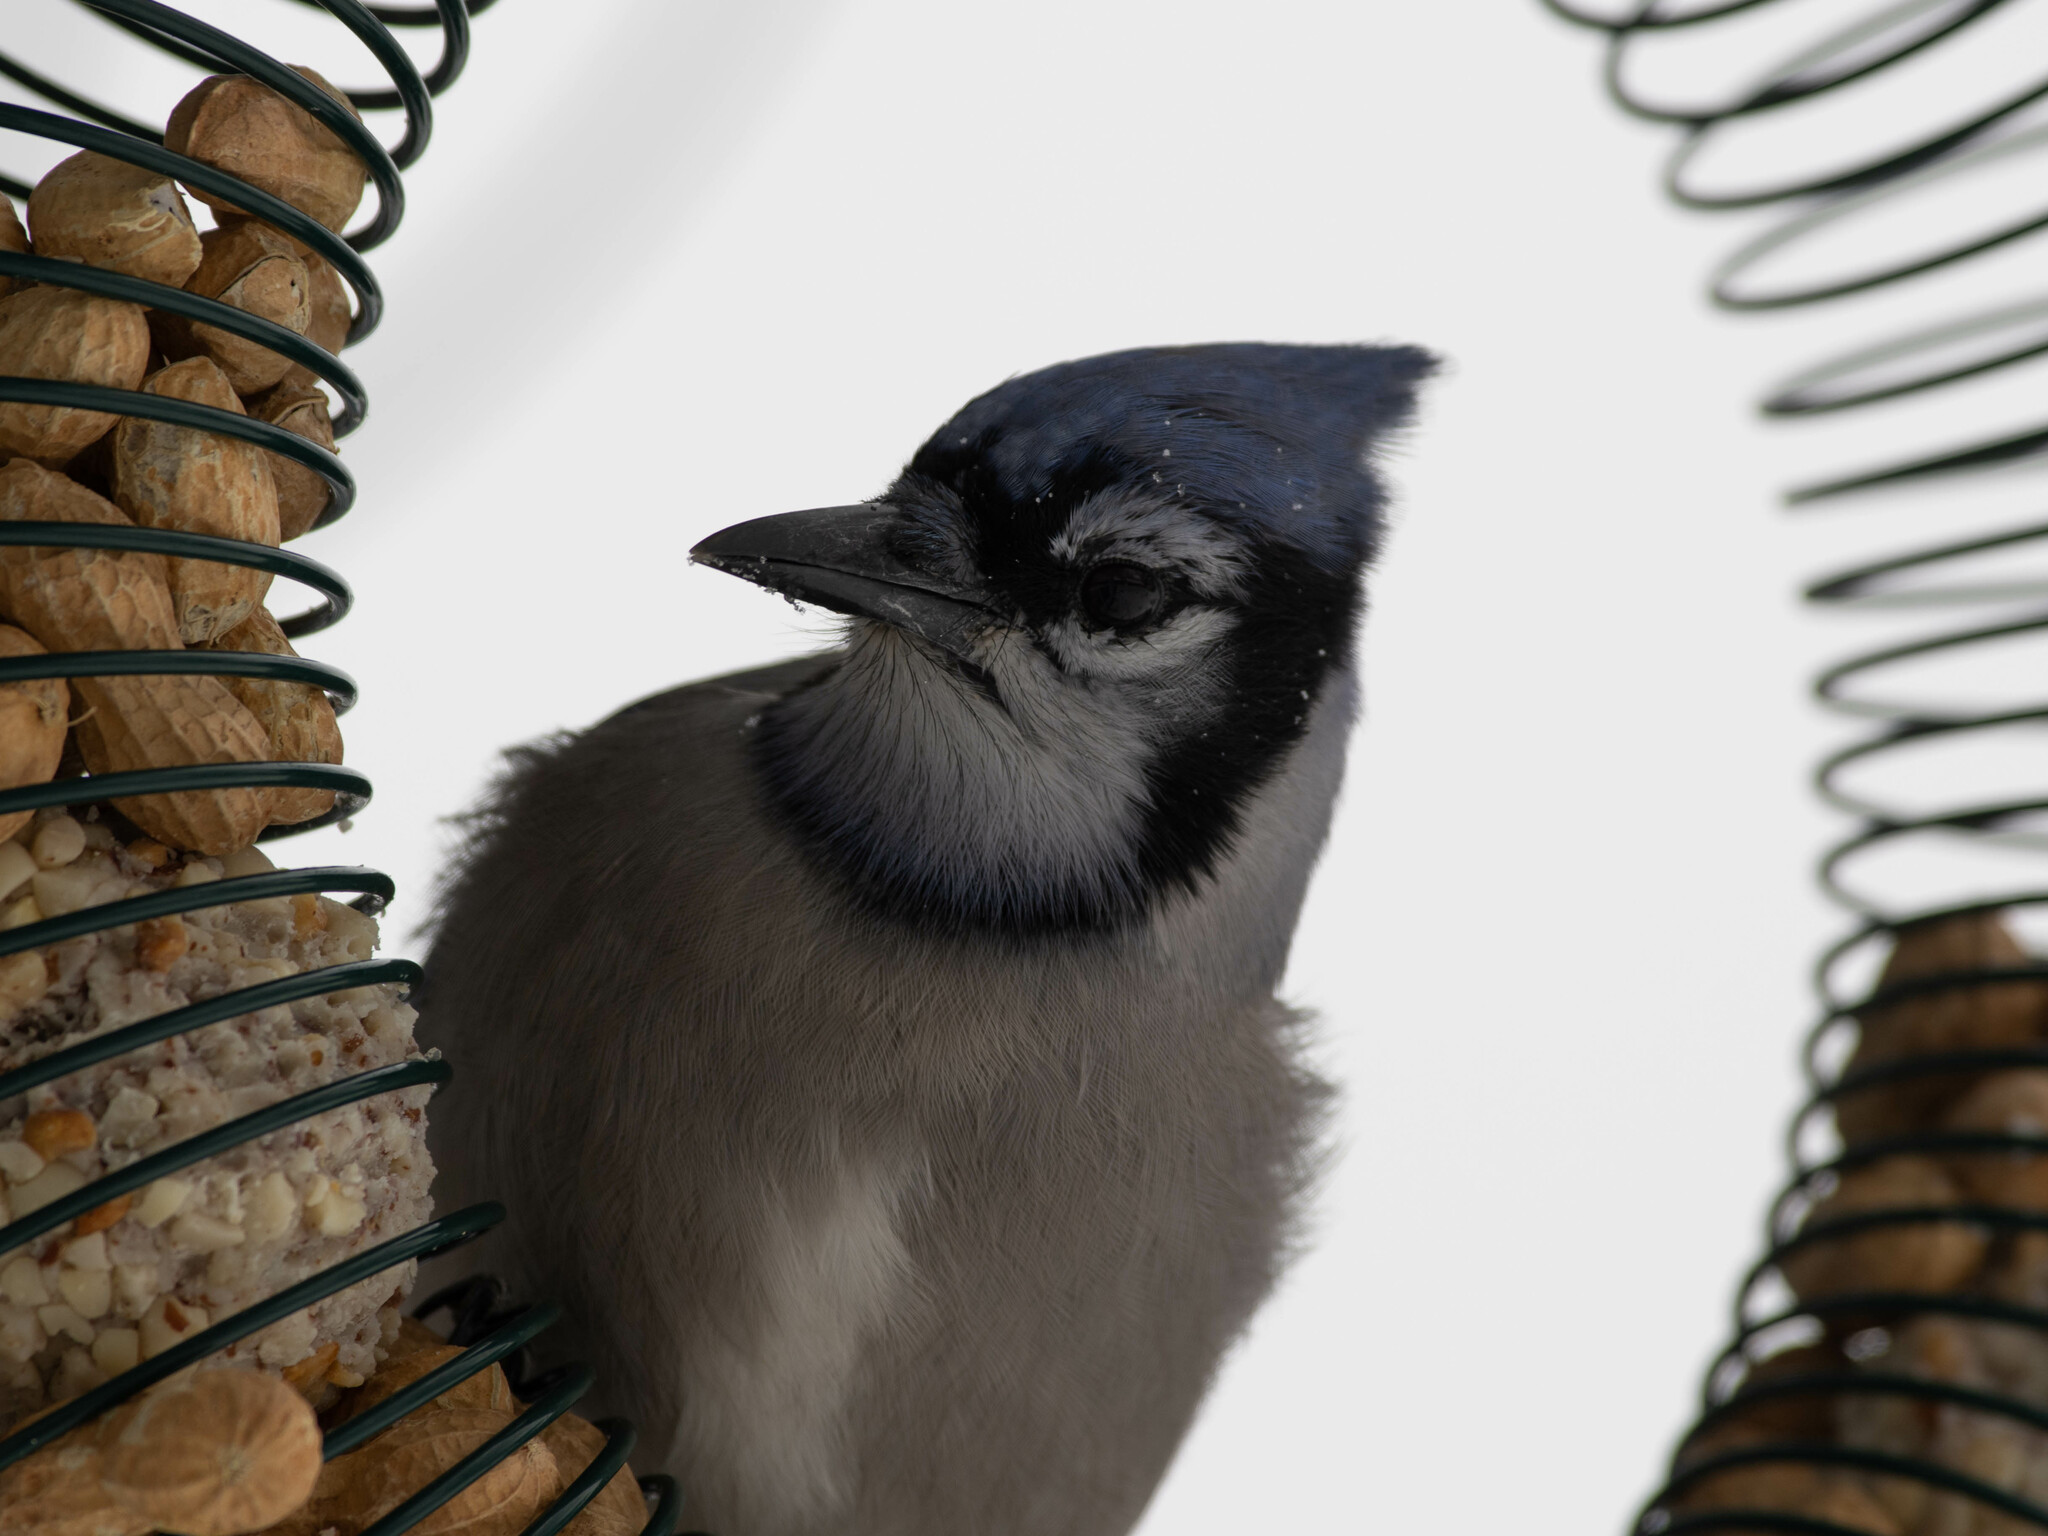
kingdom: Animalia
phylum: Chordata
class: Aves
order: Passeriformes
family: Corvidae
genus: Cyanocitta
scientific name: Cyanocitta cristata
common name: Blue jay
